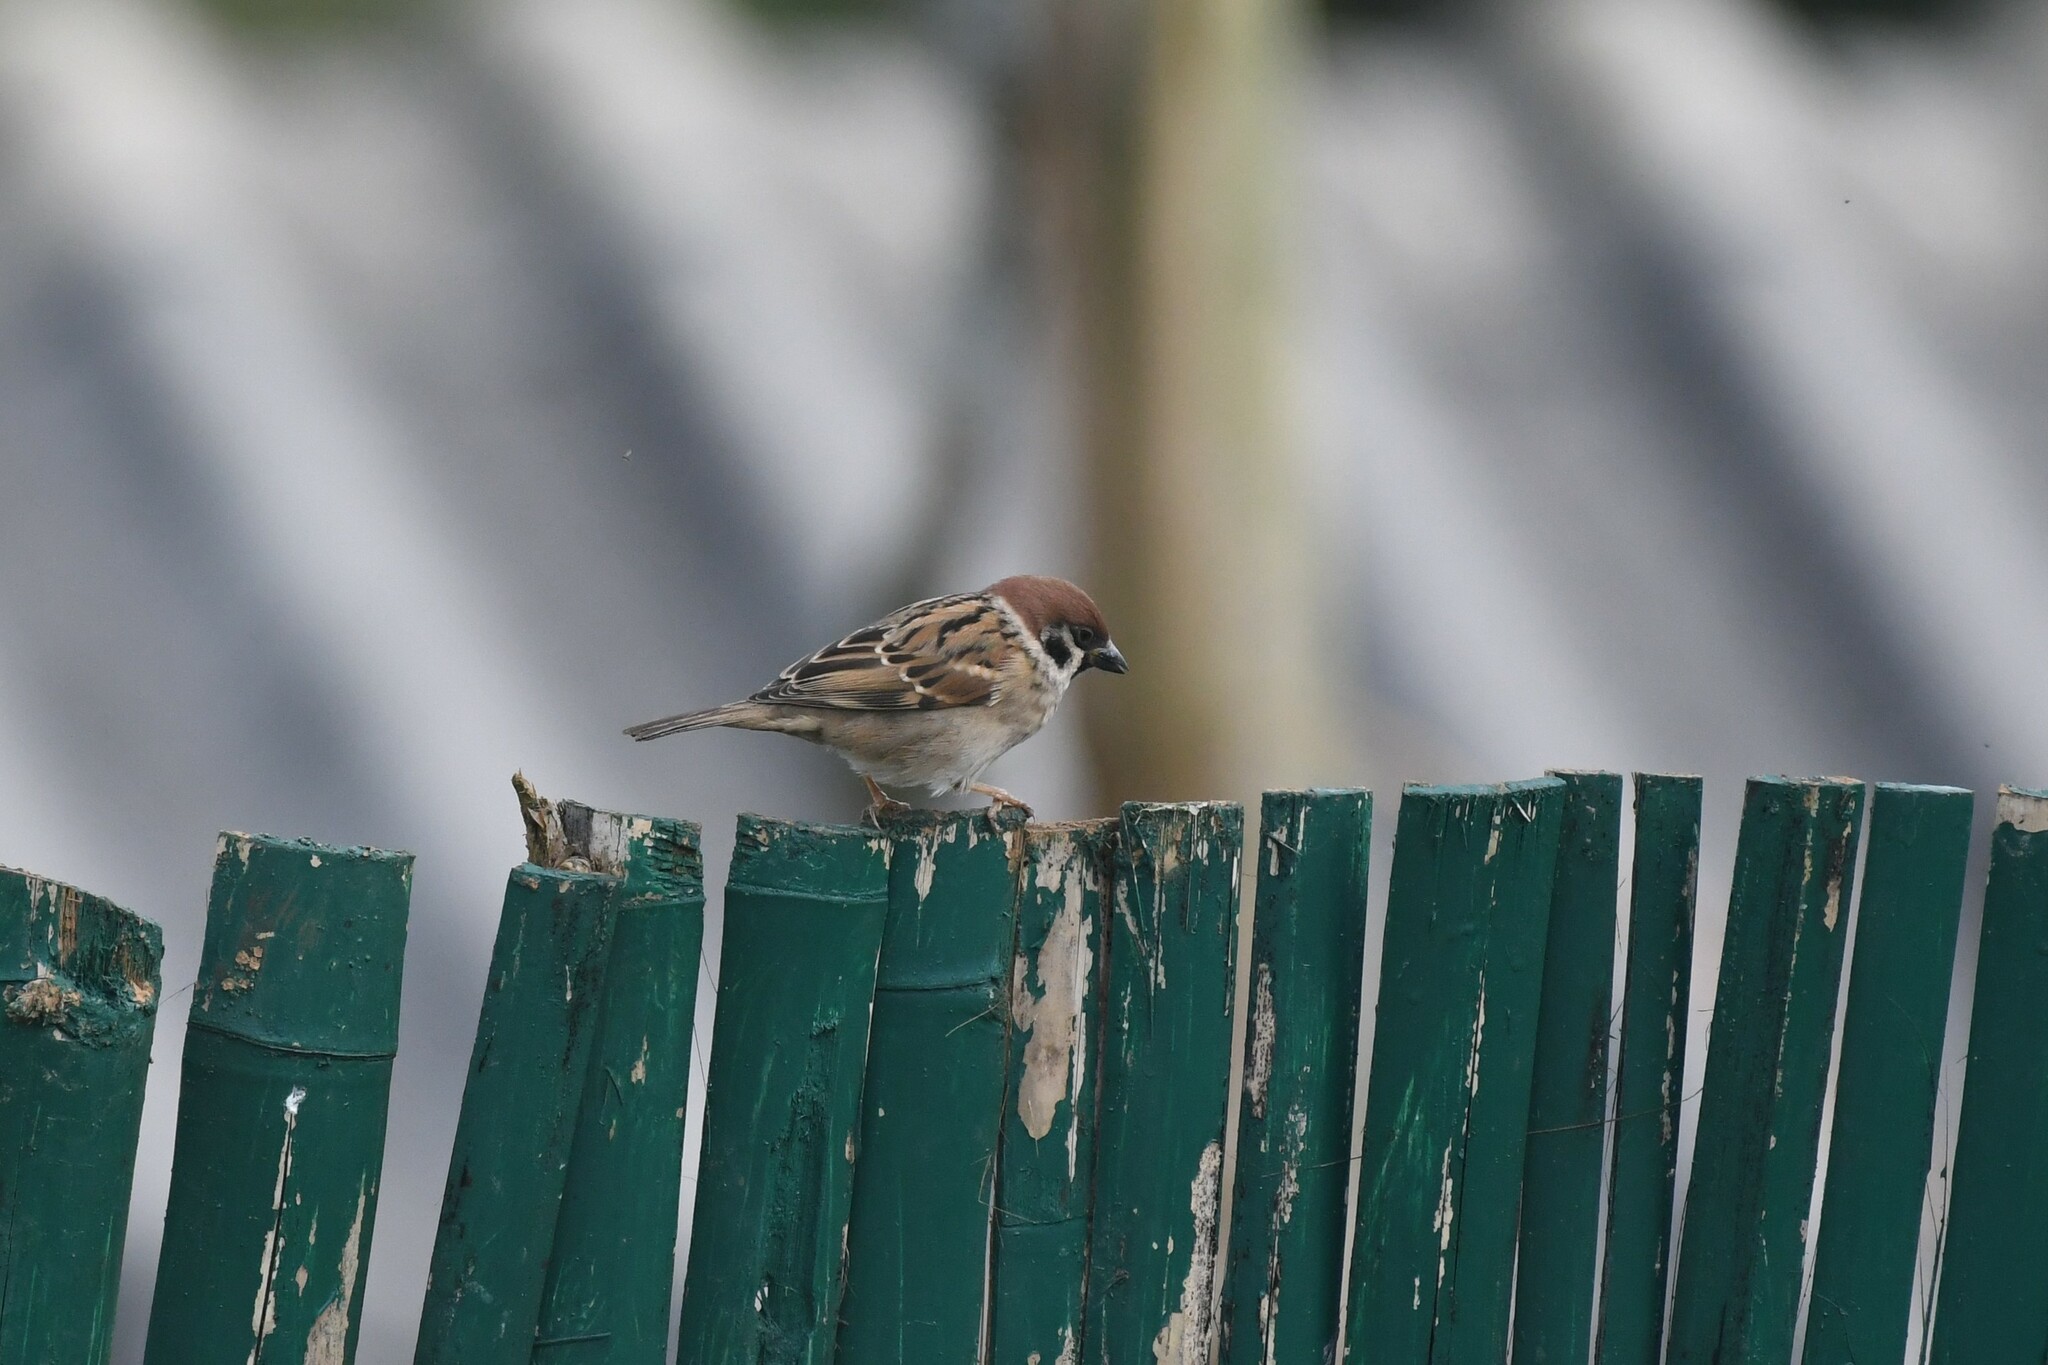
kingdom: Animalia
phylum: Chordata
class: Aves
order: Passeriformes
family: Passeridae
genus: Passer
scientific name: Passer montanus
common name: Eurasian tree sparrow
